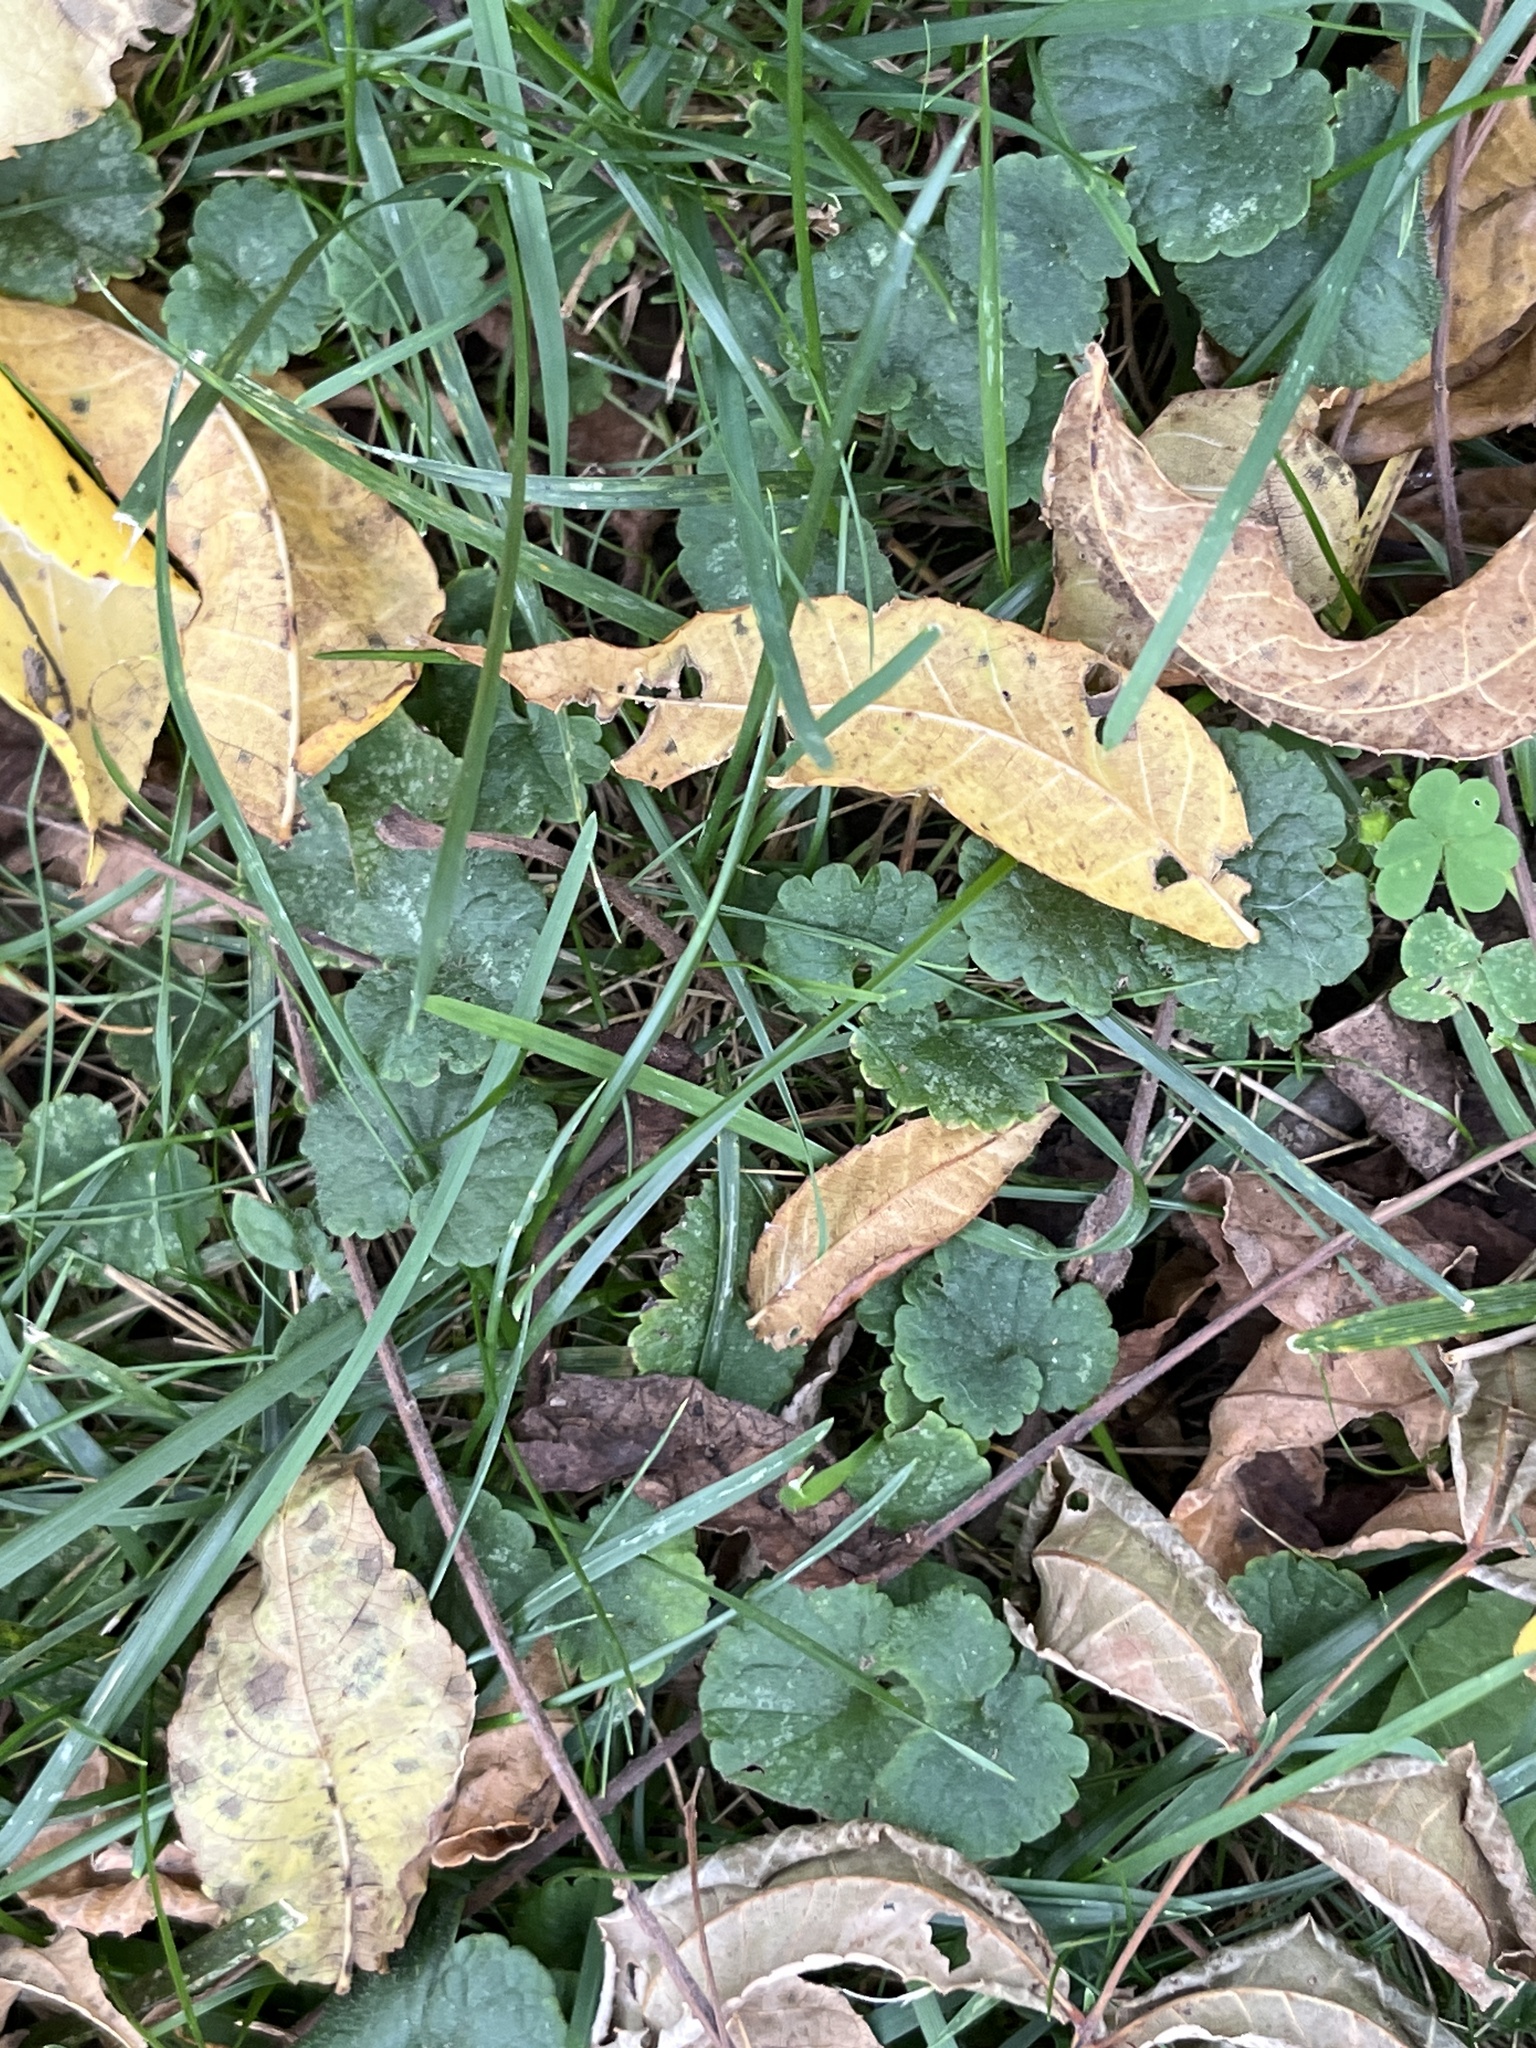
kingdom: Plantae
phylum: Tracheophyta
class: Magnoliopsida
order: Lamiales
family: Lamiaceae
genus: Glechoma
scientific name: Glechoma hederacea
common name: Ground ivy
